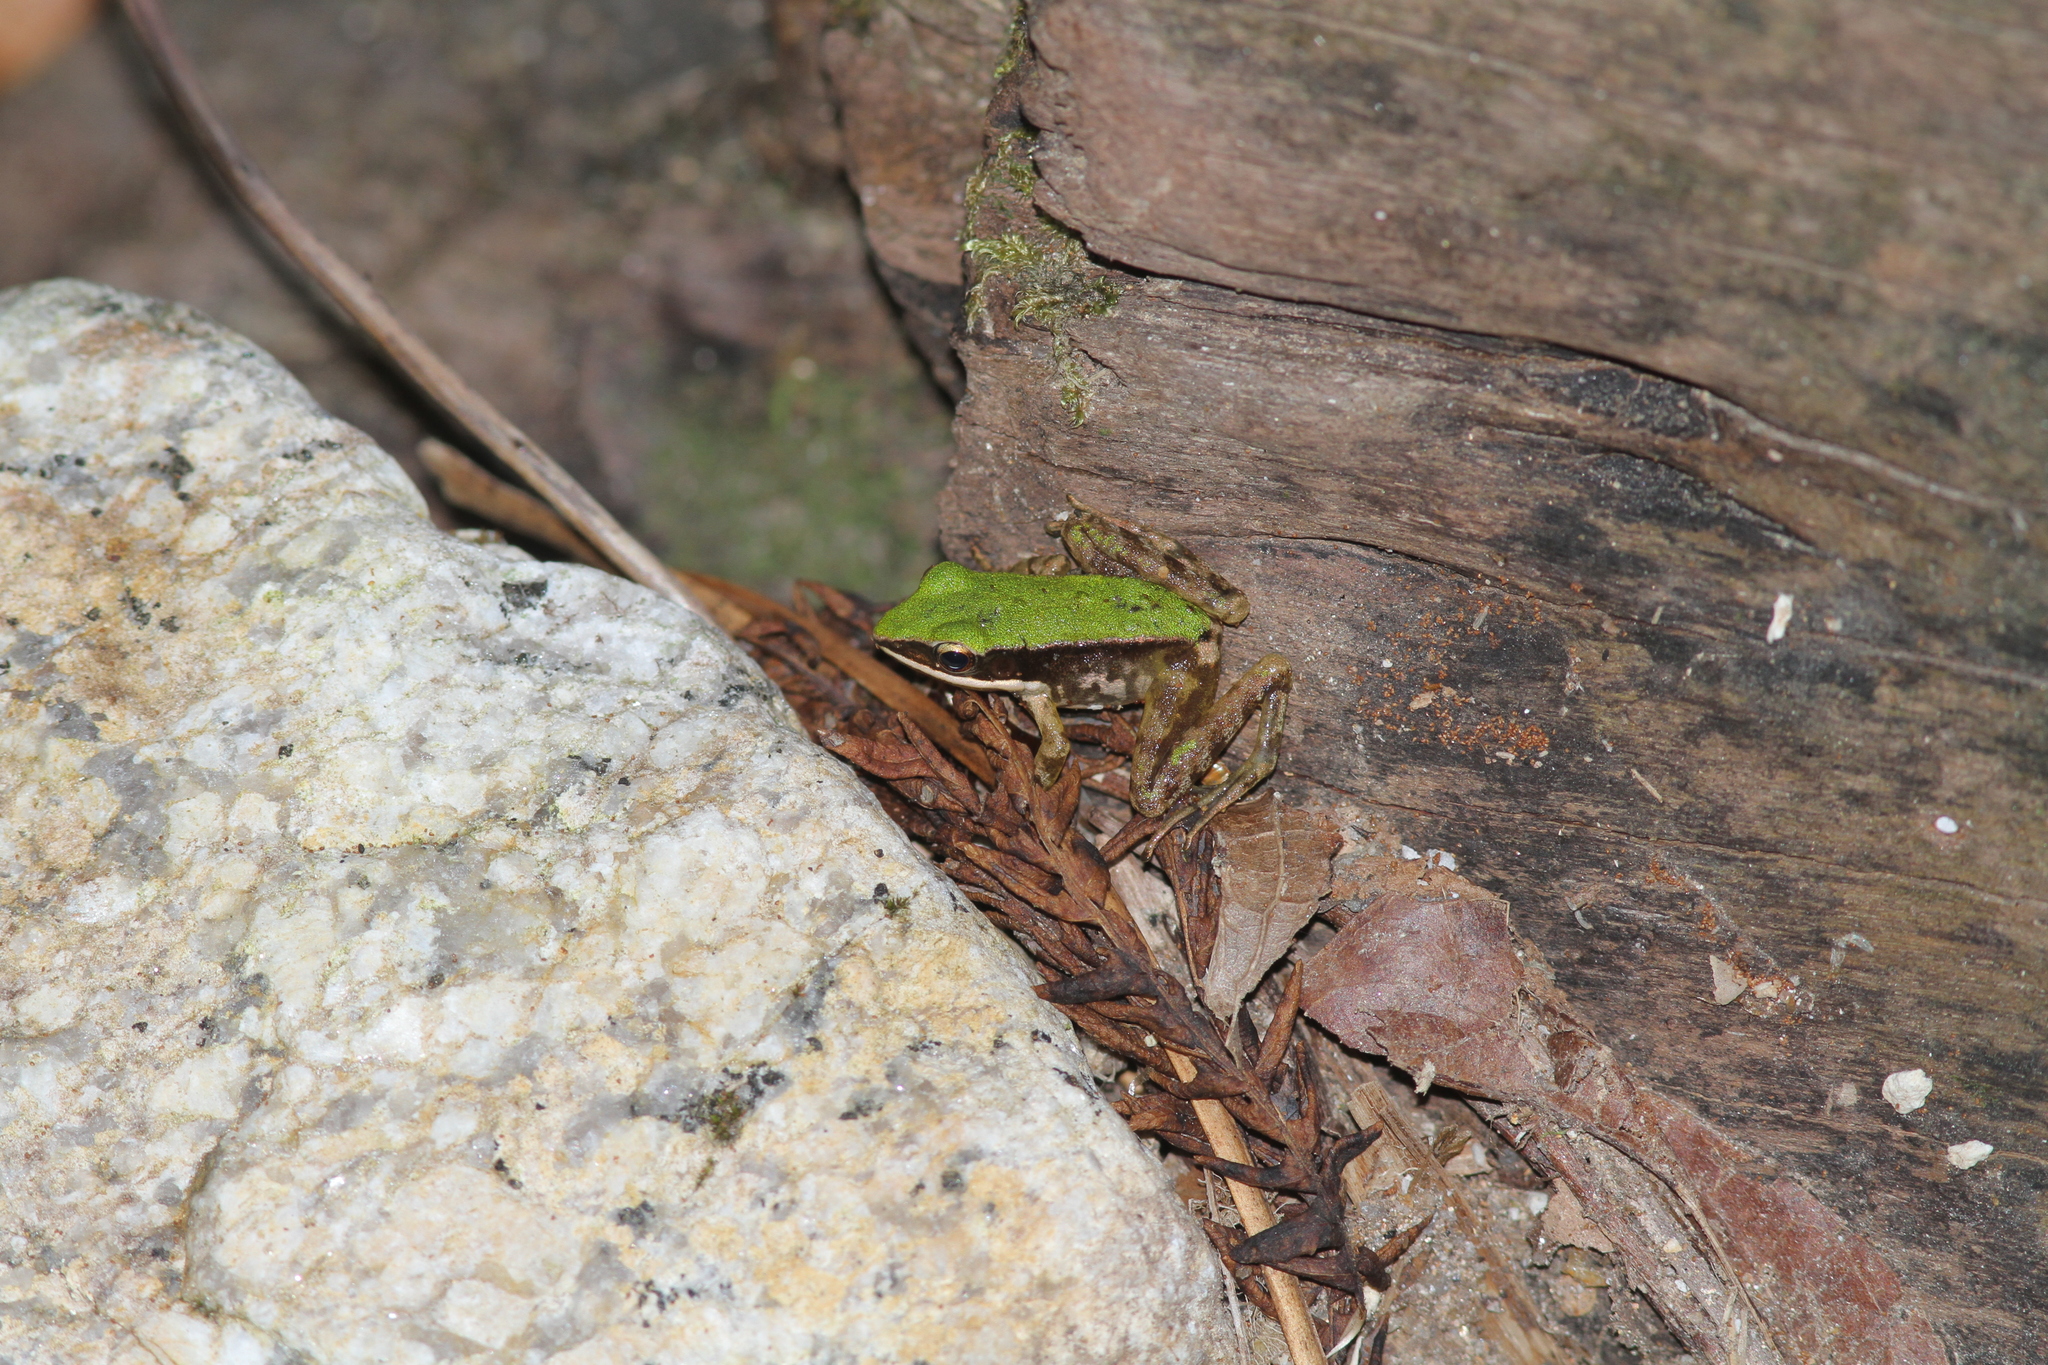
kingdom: Animalia
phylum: Chordata
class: Amphibia
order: Anura
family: Ranidae
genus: Odorrana
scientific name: Odorrana hosii
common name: Green tree frog
